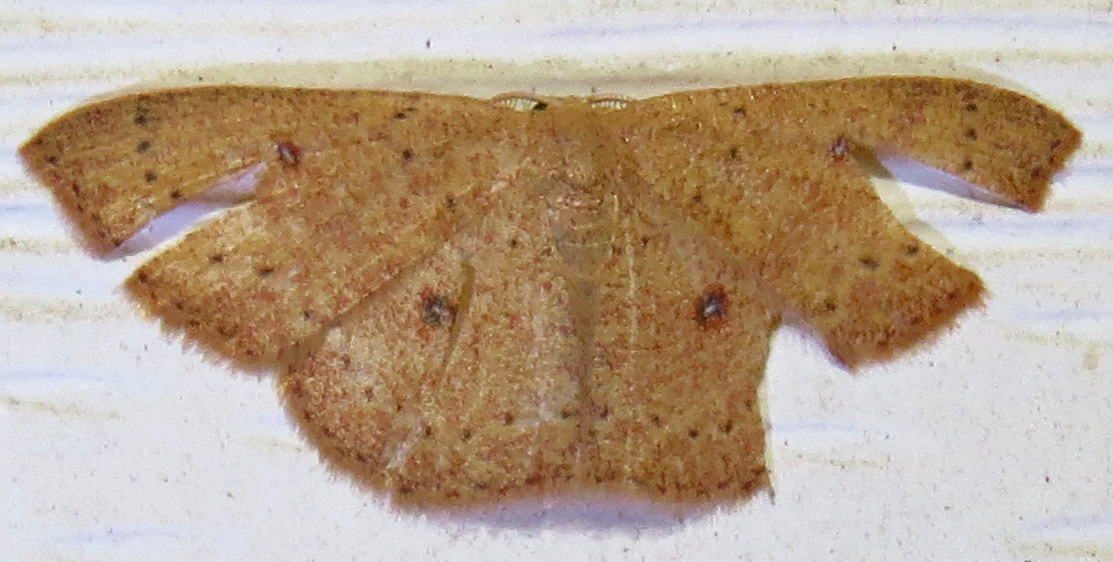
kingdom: Animalia
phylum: Arthropoda
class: Insecta
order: Lepidoptera
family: Geometridae
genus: Cyclophora
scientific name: Cyclophora packardi
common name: Packard's wave
